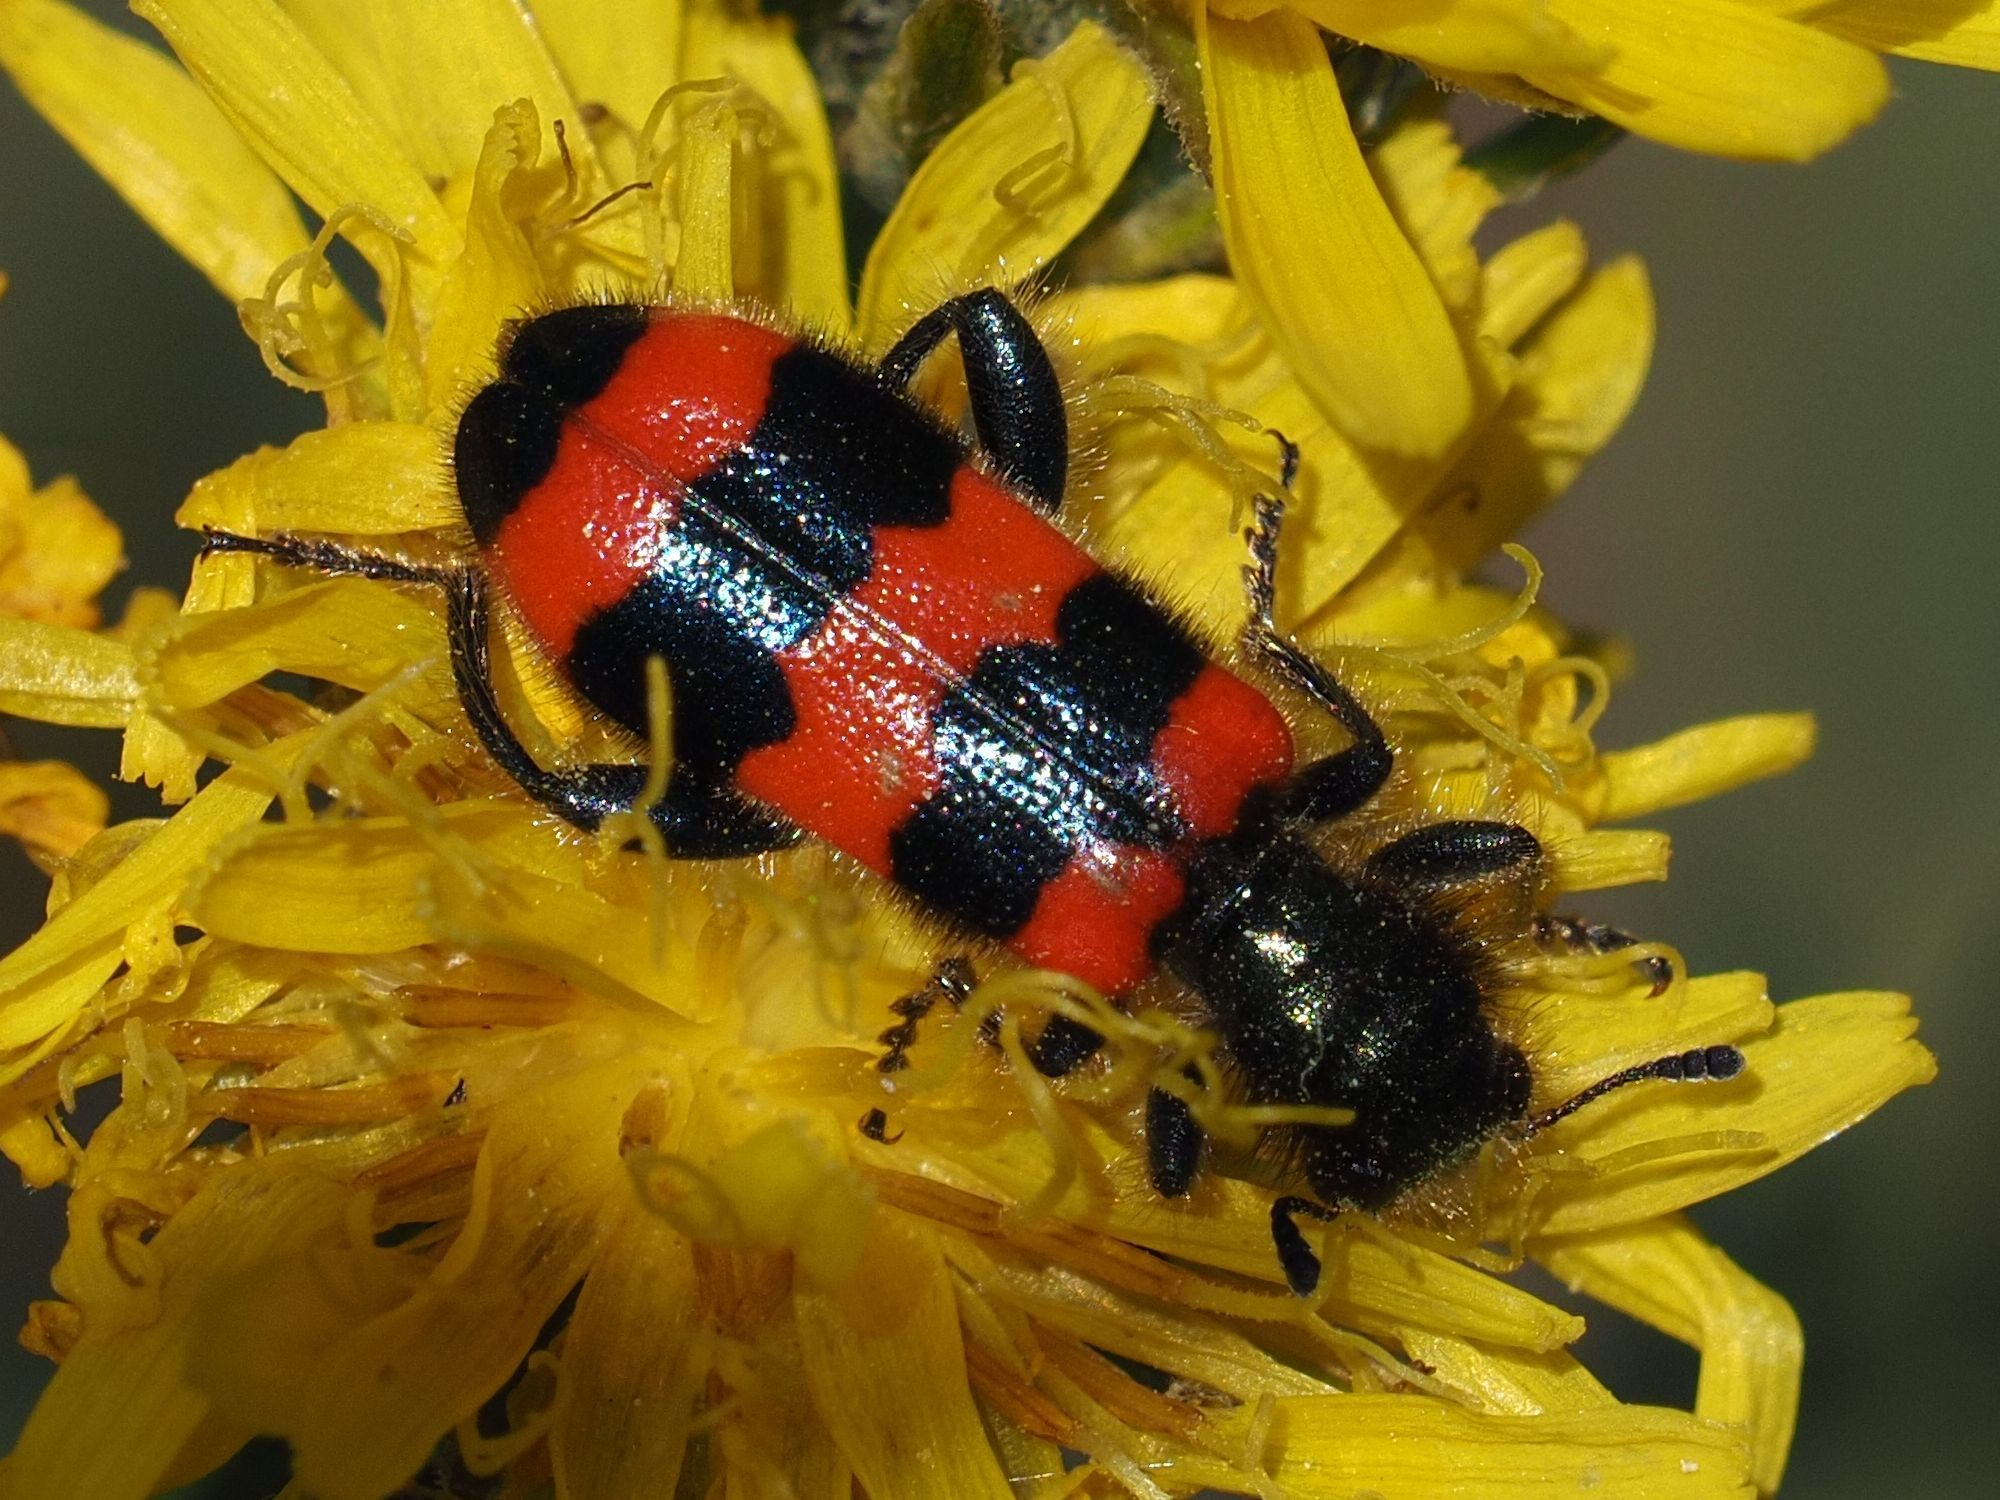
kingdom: Animalia
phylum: Arthropoda
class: Insecta
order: Coleoptera
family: Cleridae
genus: Trichodes
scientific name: Trichodes apiarius
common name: Bee-eating beetle
